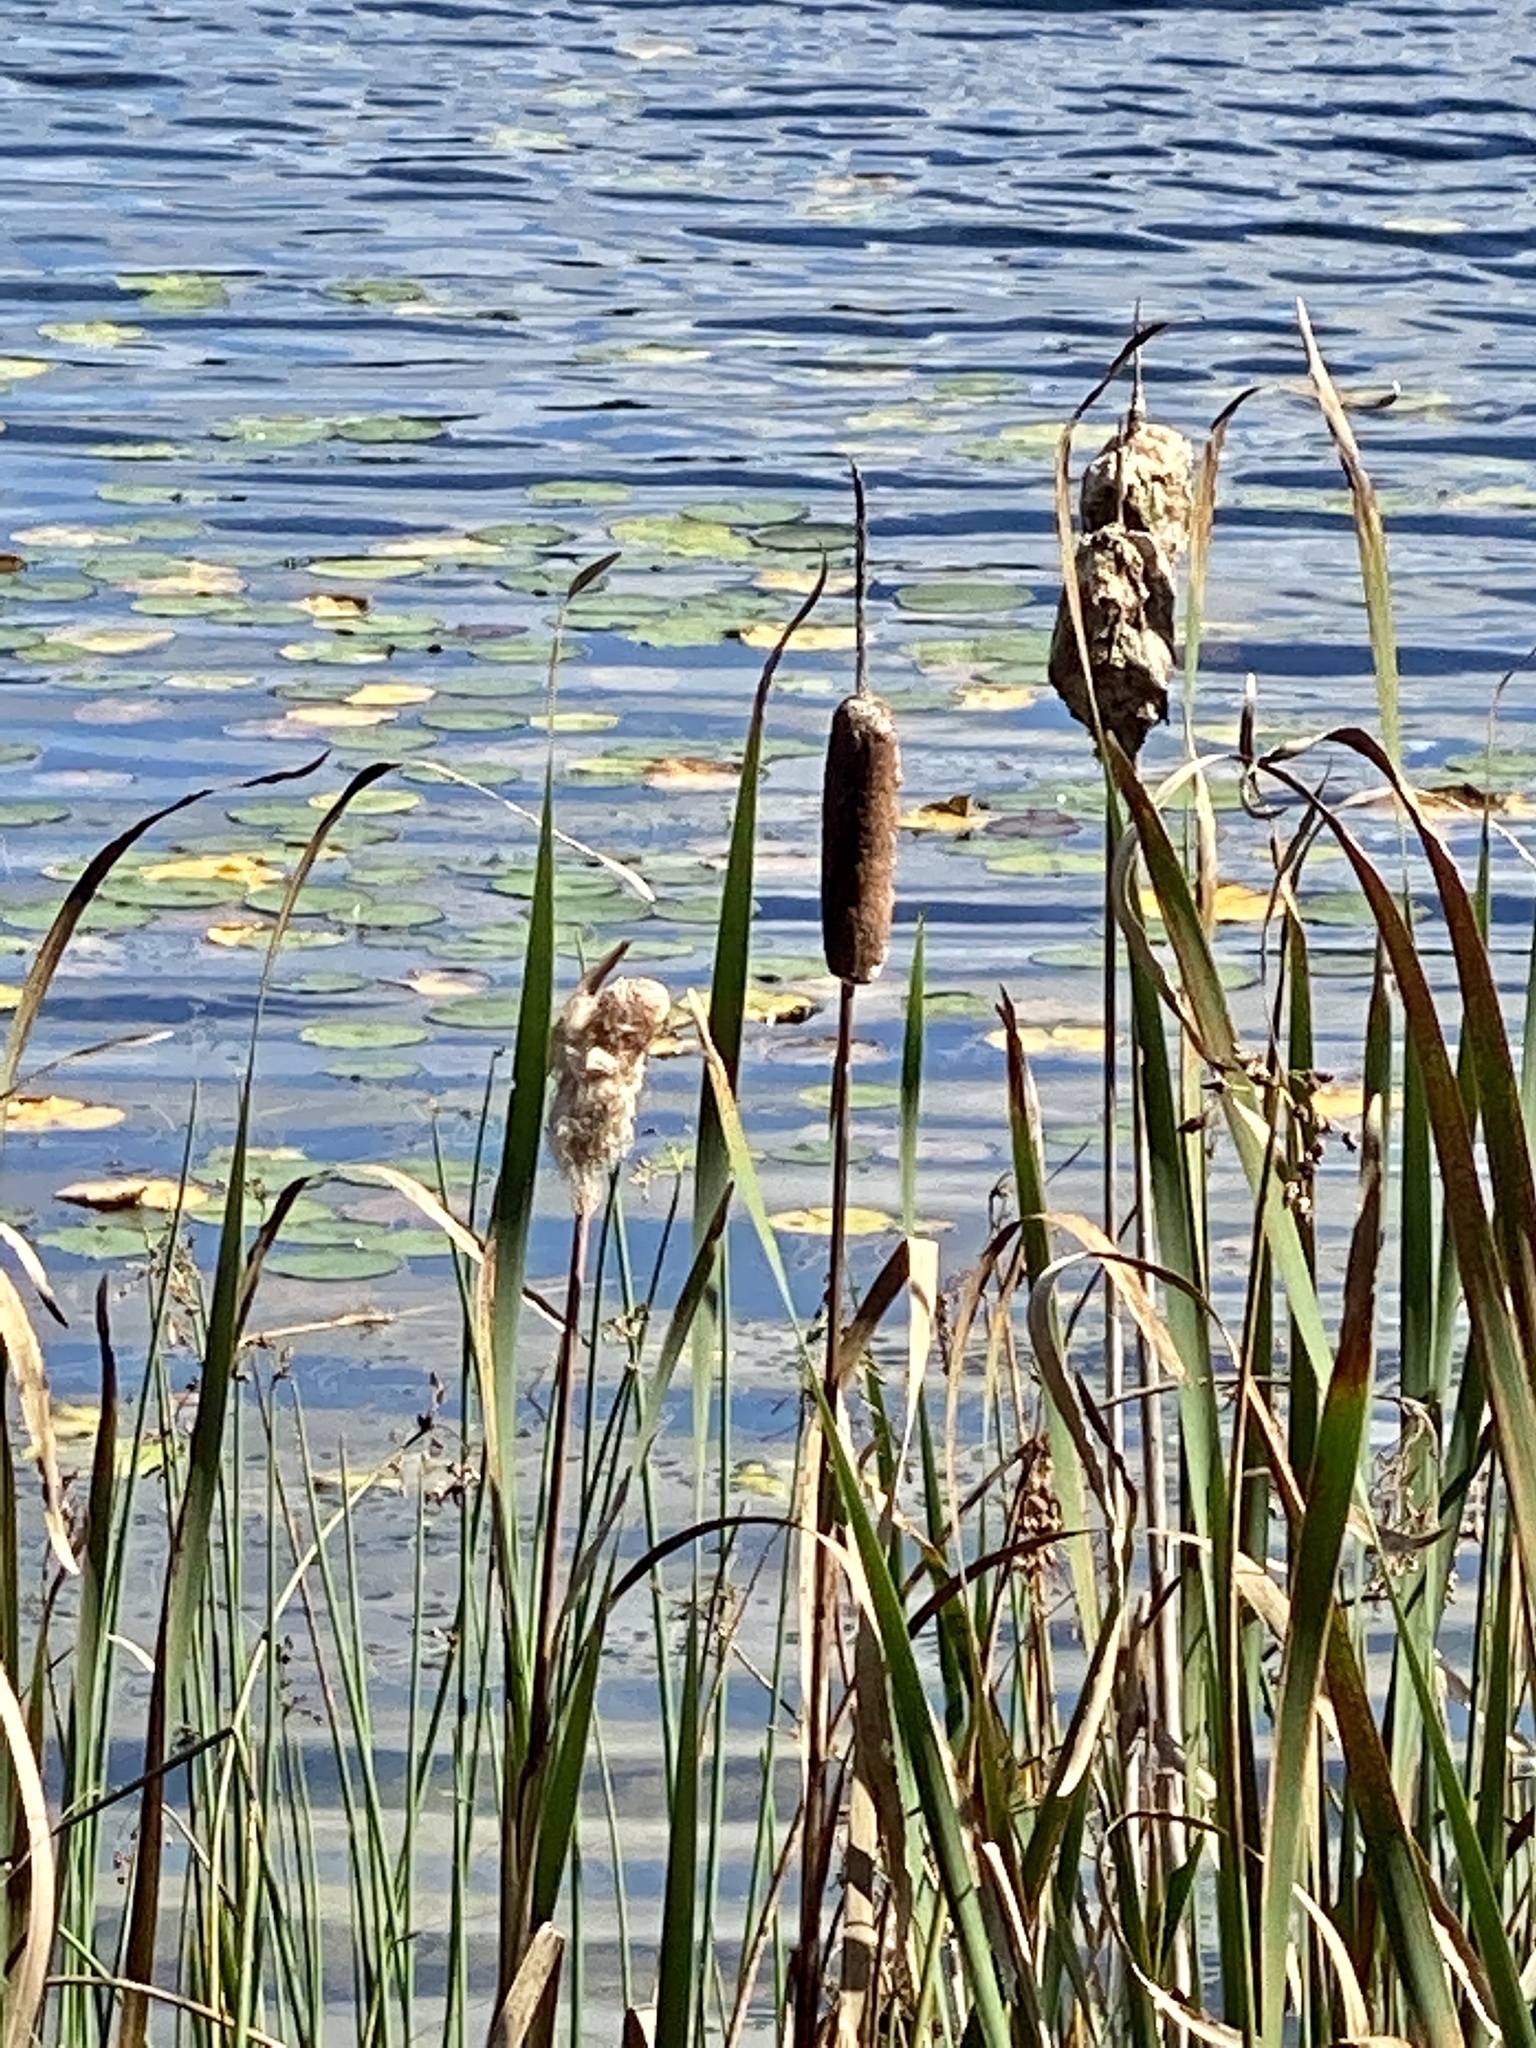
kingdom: Plantae
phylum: Tracheophyta
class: Liliopsida
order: Poales
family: Typhaceae
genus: Typha
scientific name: Typha latifolia
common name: Broadleaf cattail
